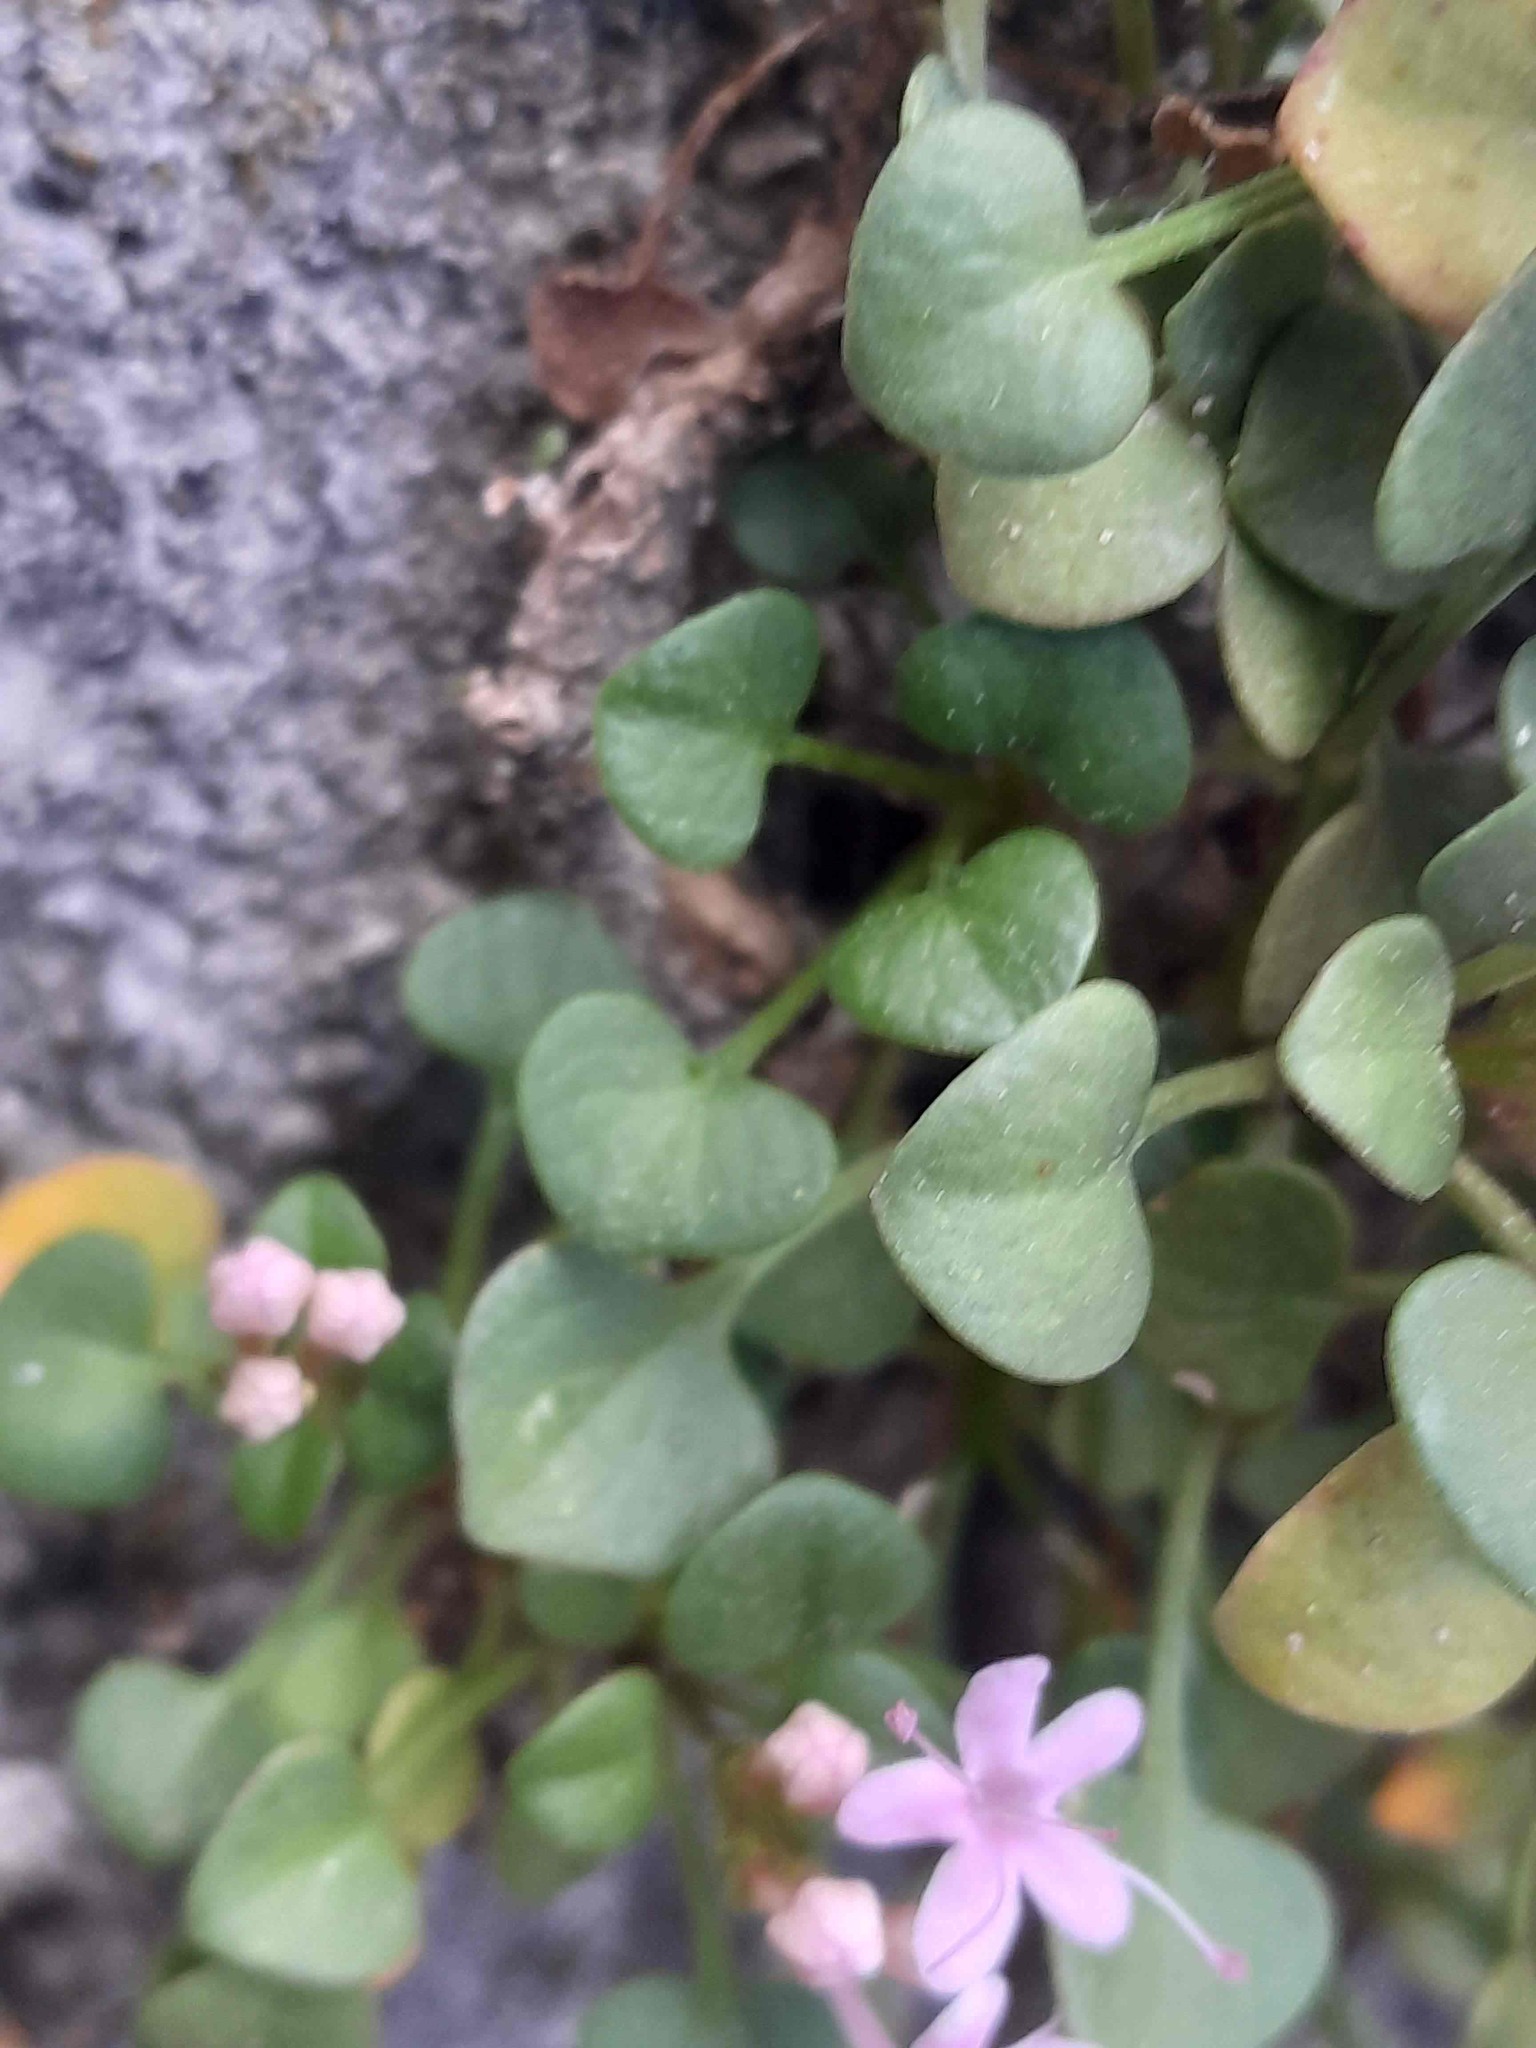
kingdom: Plantae
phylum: Tracheophyta
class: Magnoliopsida
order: Dipsacales
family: Caprifoliaceae
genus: Valeriana
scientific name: Valeriana longiflora
